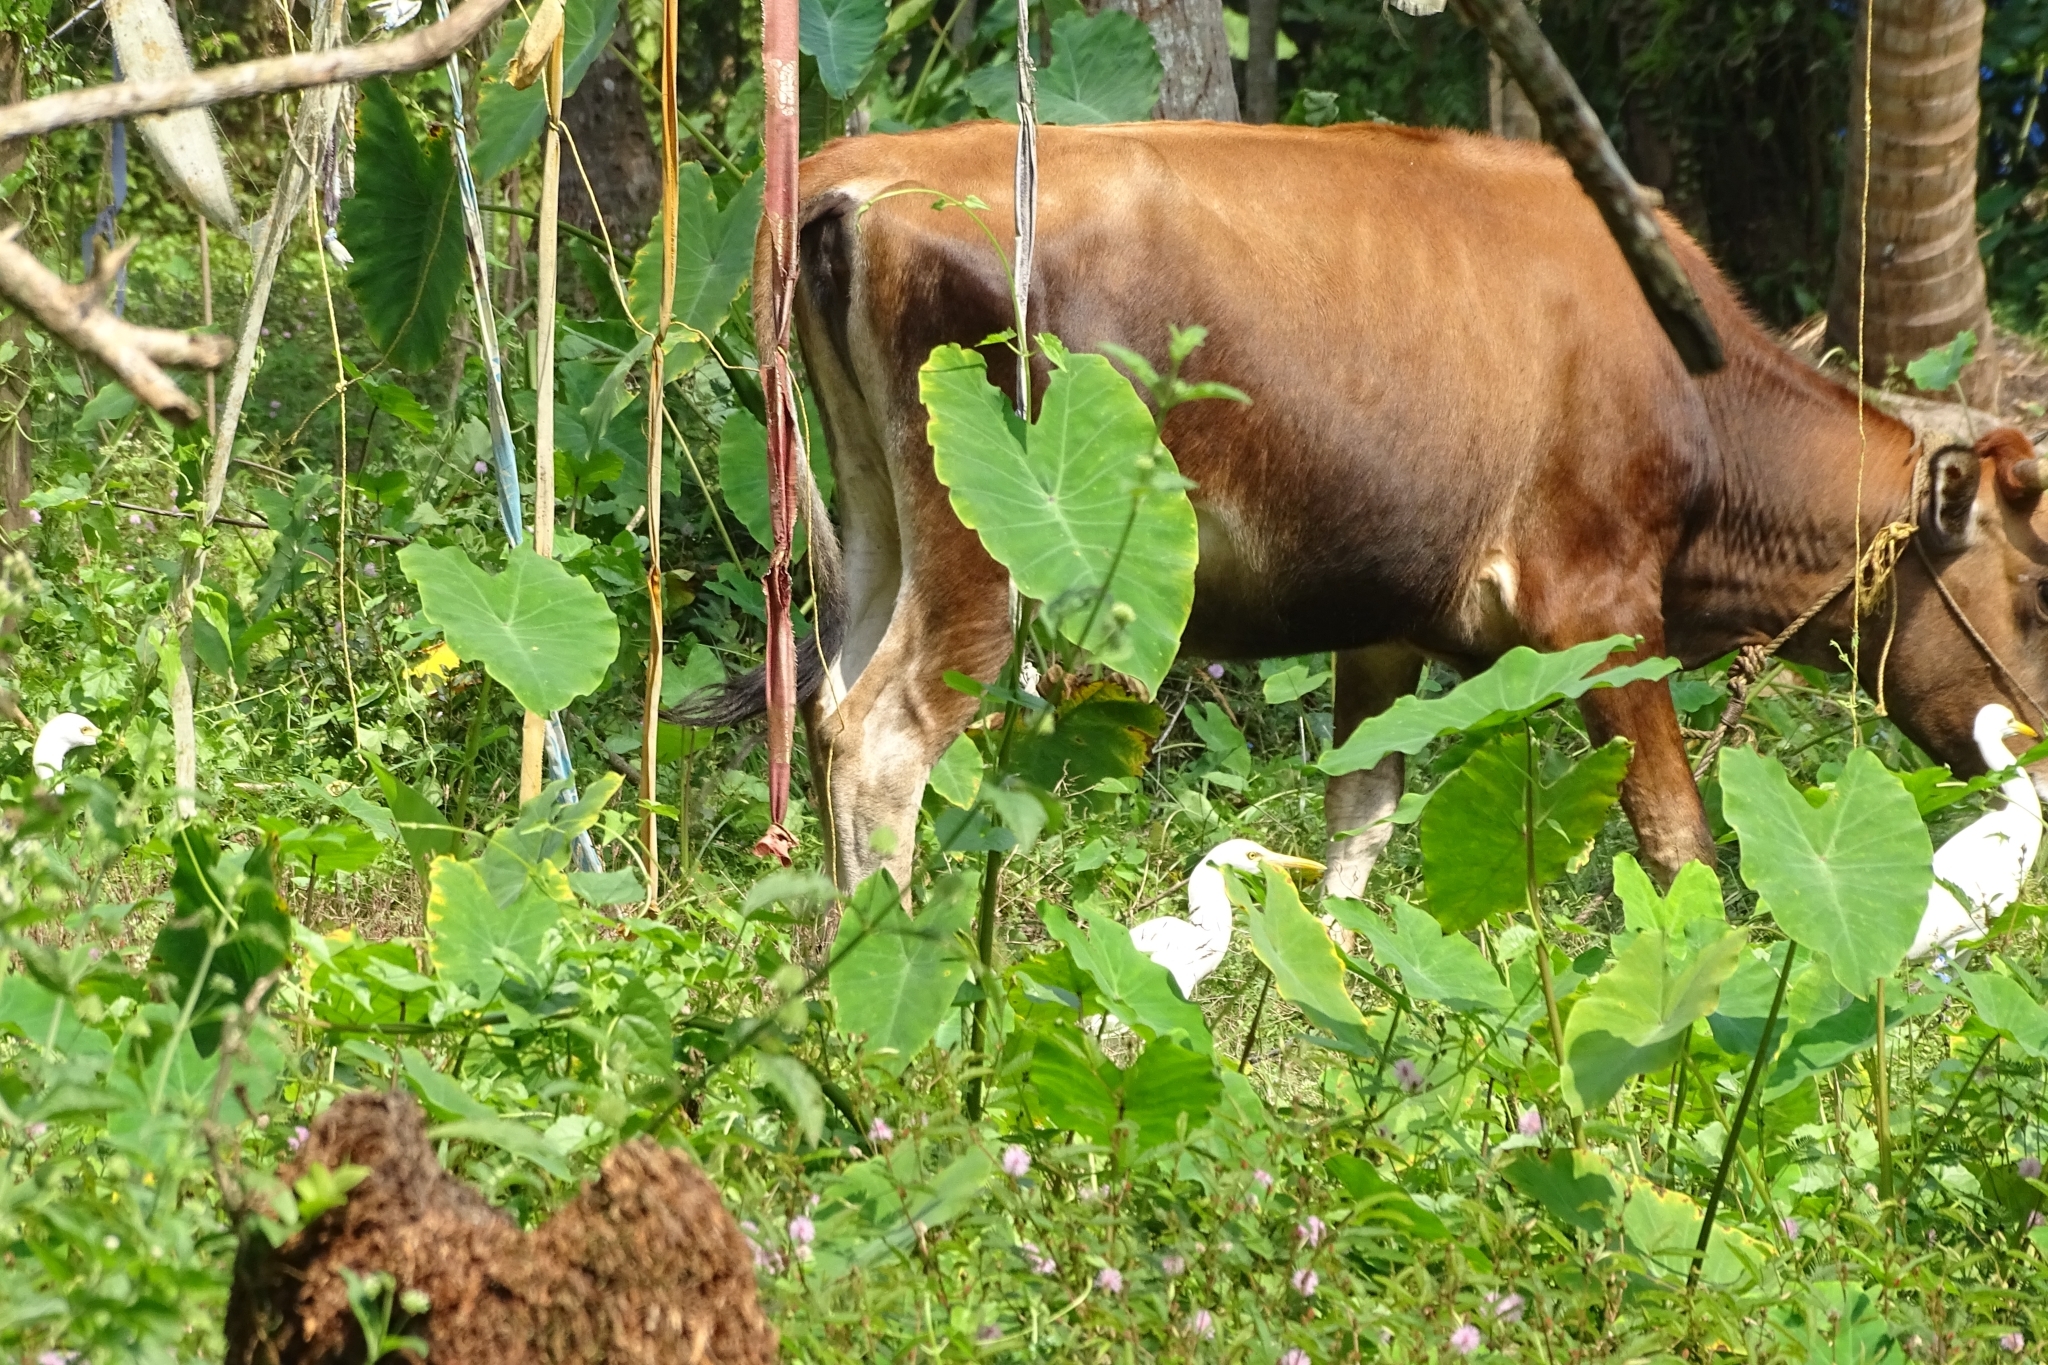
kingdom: Animalia
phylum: Chordata
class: Aves
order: Pelecaniformes
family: Ardeidae
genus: Bubulcus
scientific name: Bubulcus coromandus
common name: Eastern cattle egret
